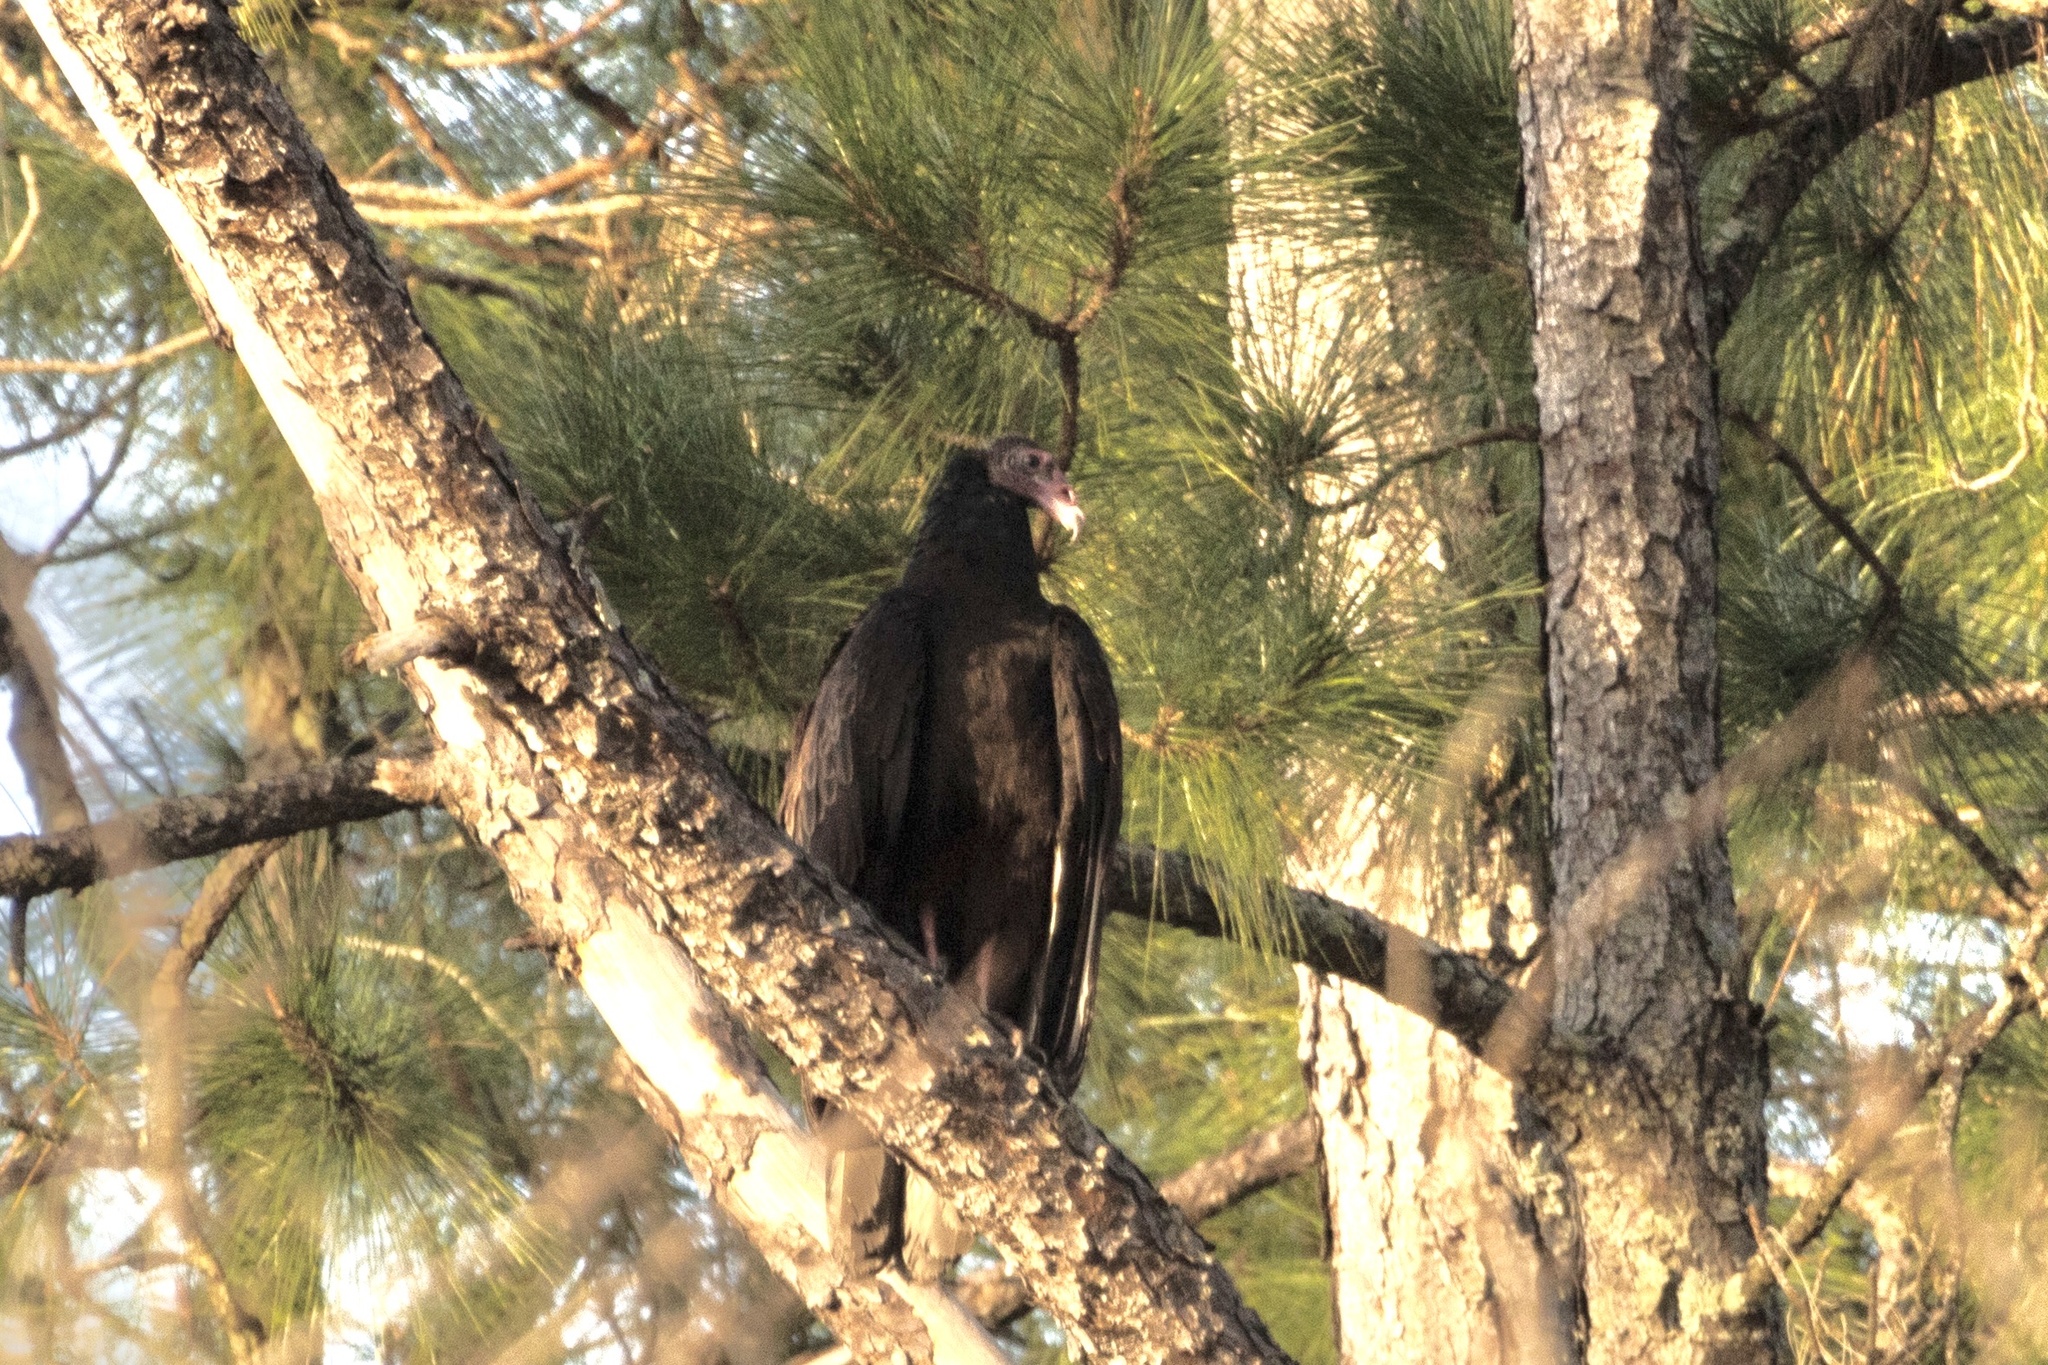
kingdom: Animalia
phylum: Chordata
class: Aves
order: Accipitriformes
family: Cathartidae
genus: Cathartes
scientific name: Cathartes aura
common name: Turkey vulture
